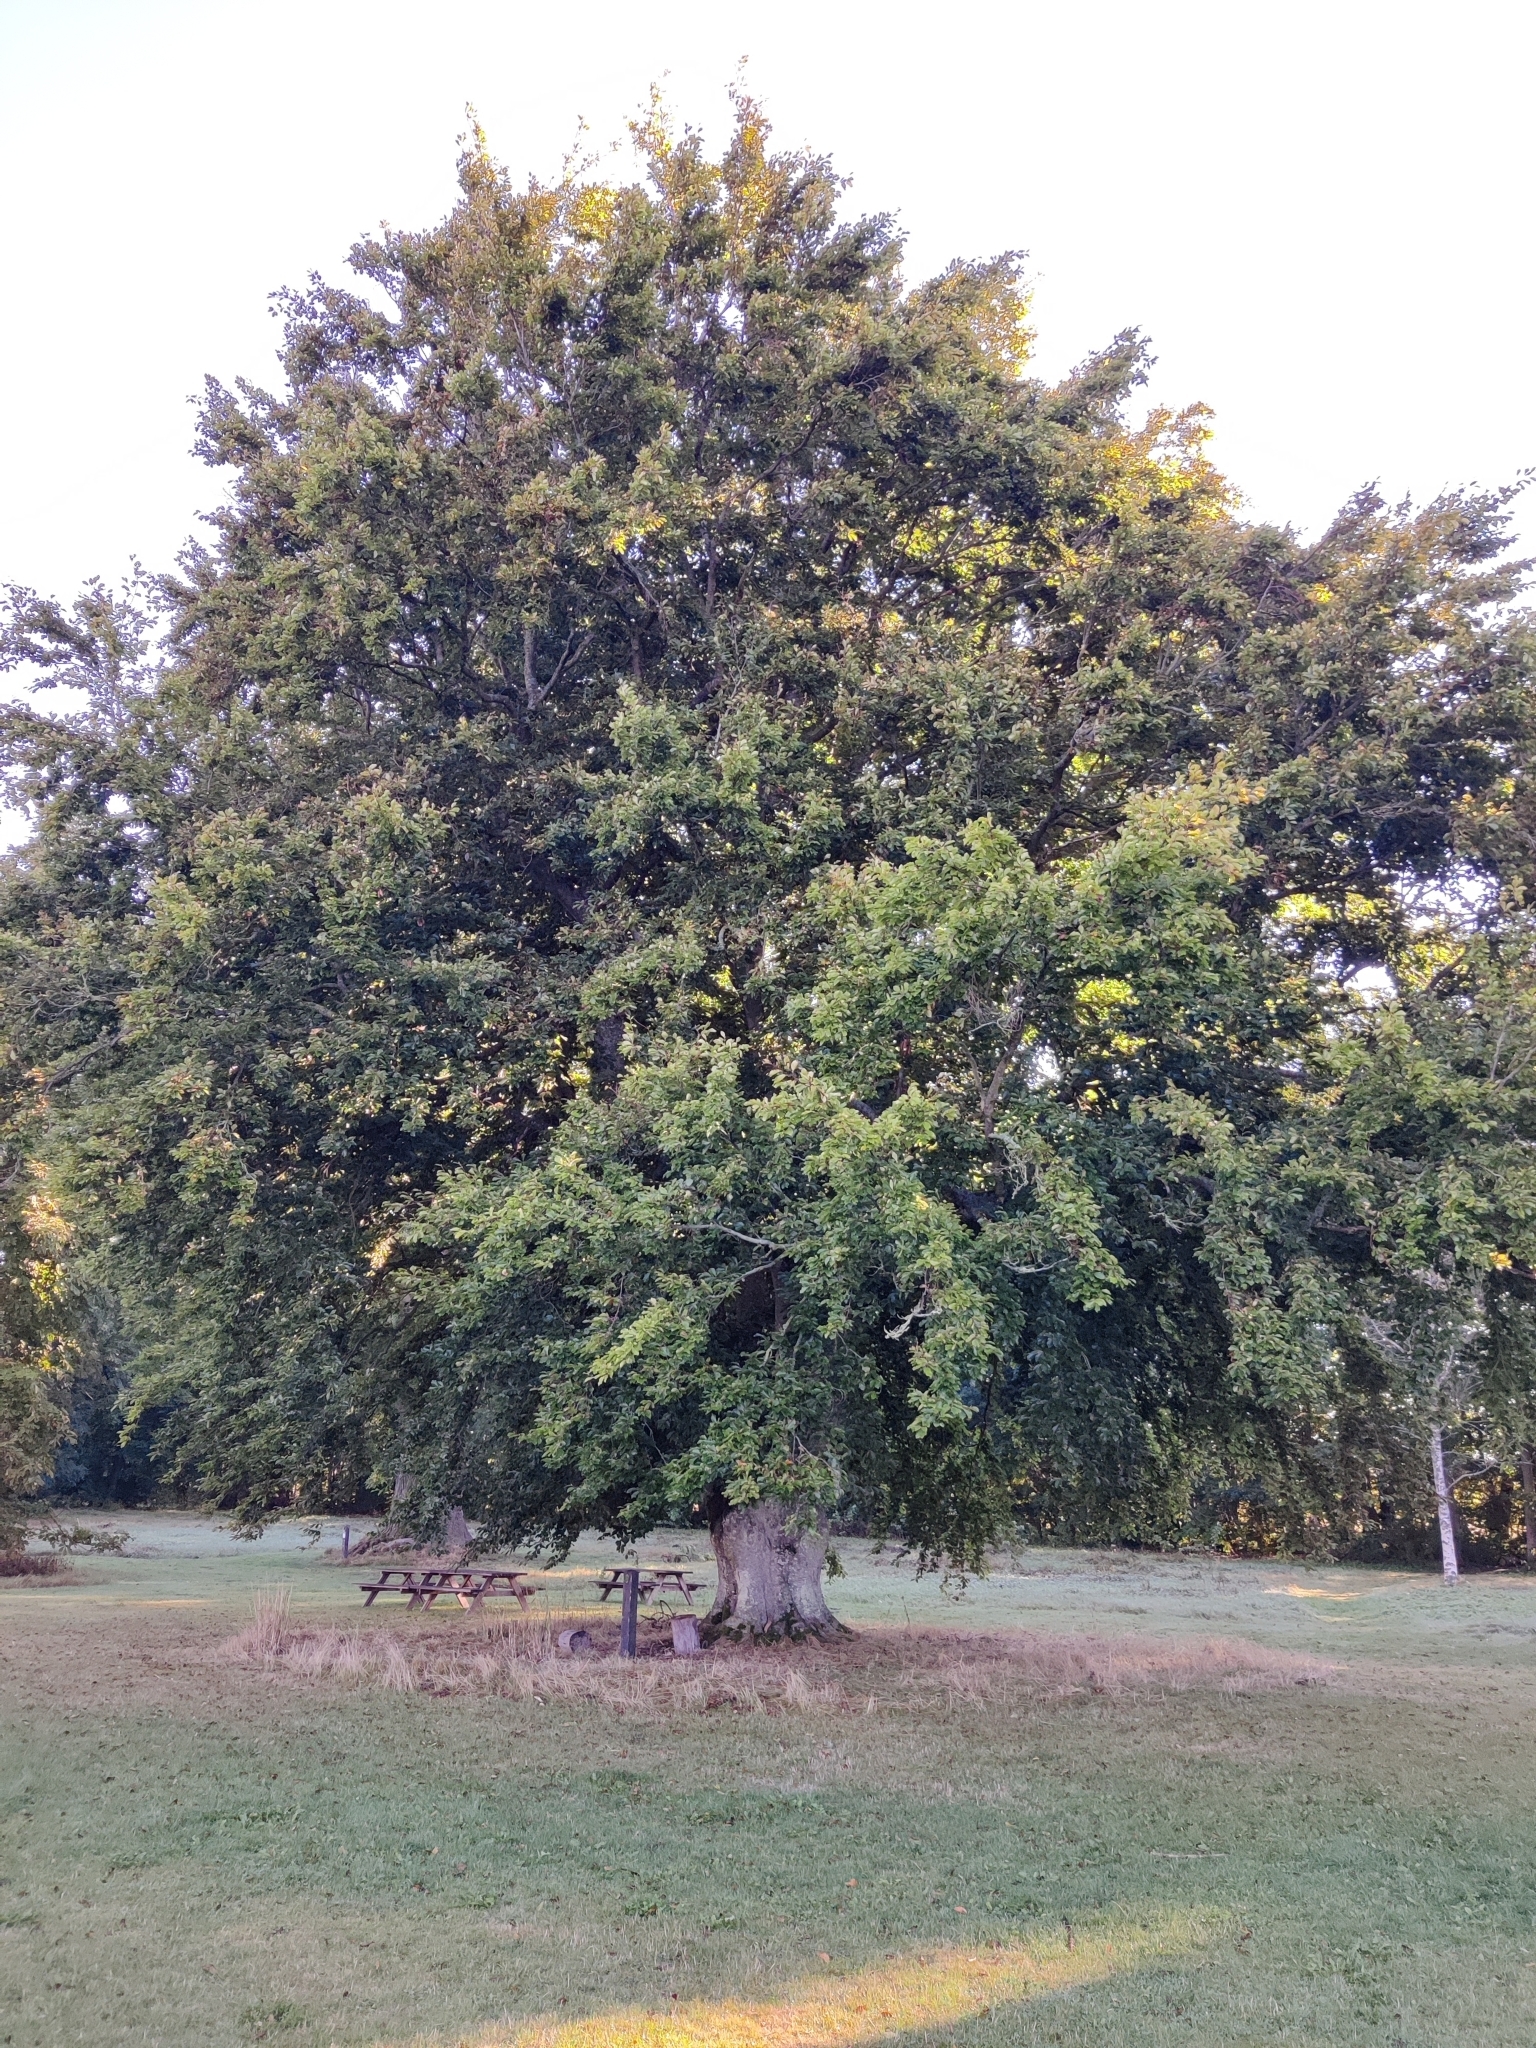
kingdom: Plantae
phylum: Tracheophyta
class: Magnoliopsida
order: Fagales
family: Fagaceae
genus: Fagus
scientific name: Fagus sylvatica
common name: Beech
